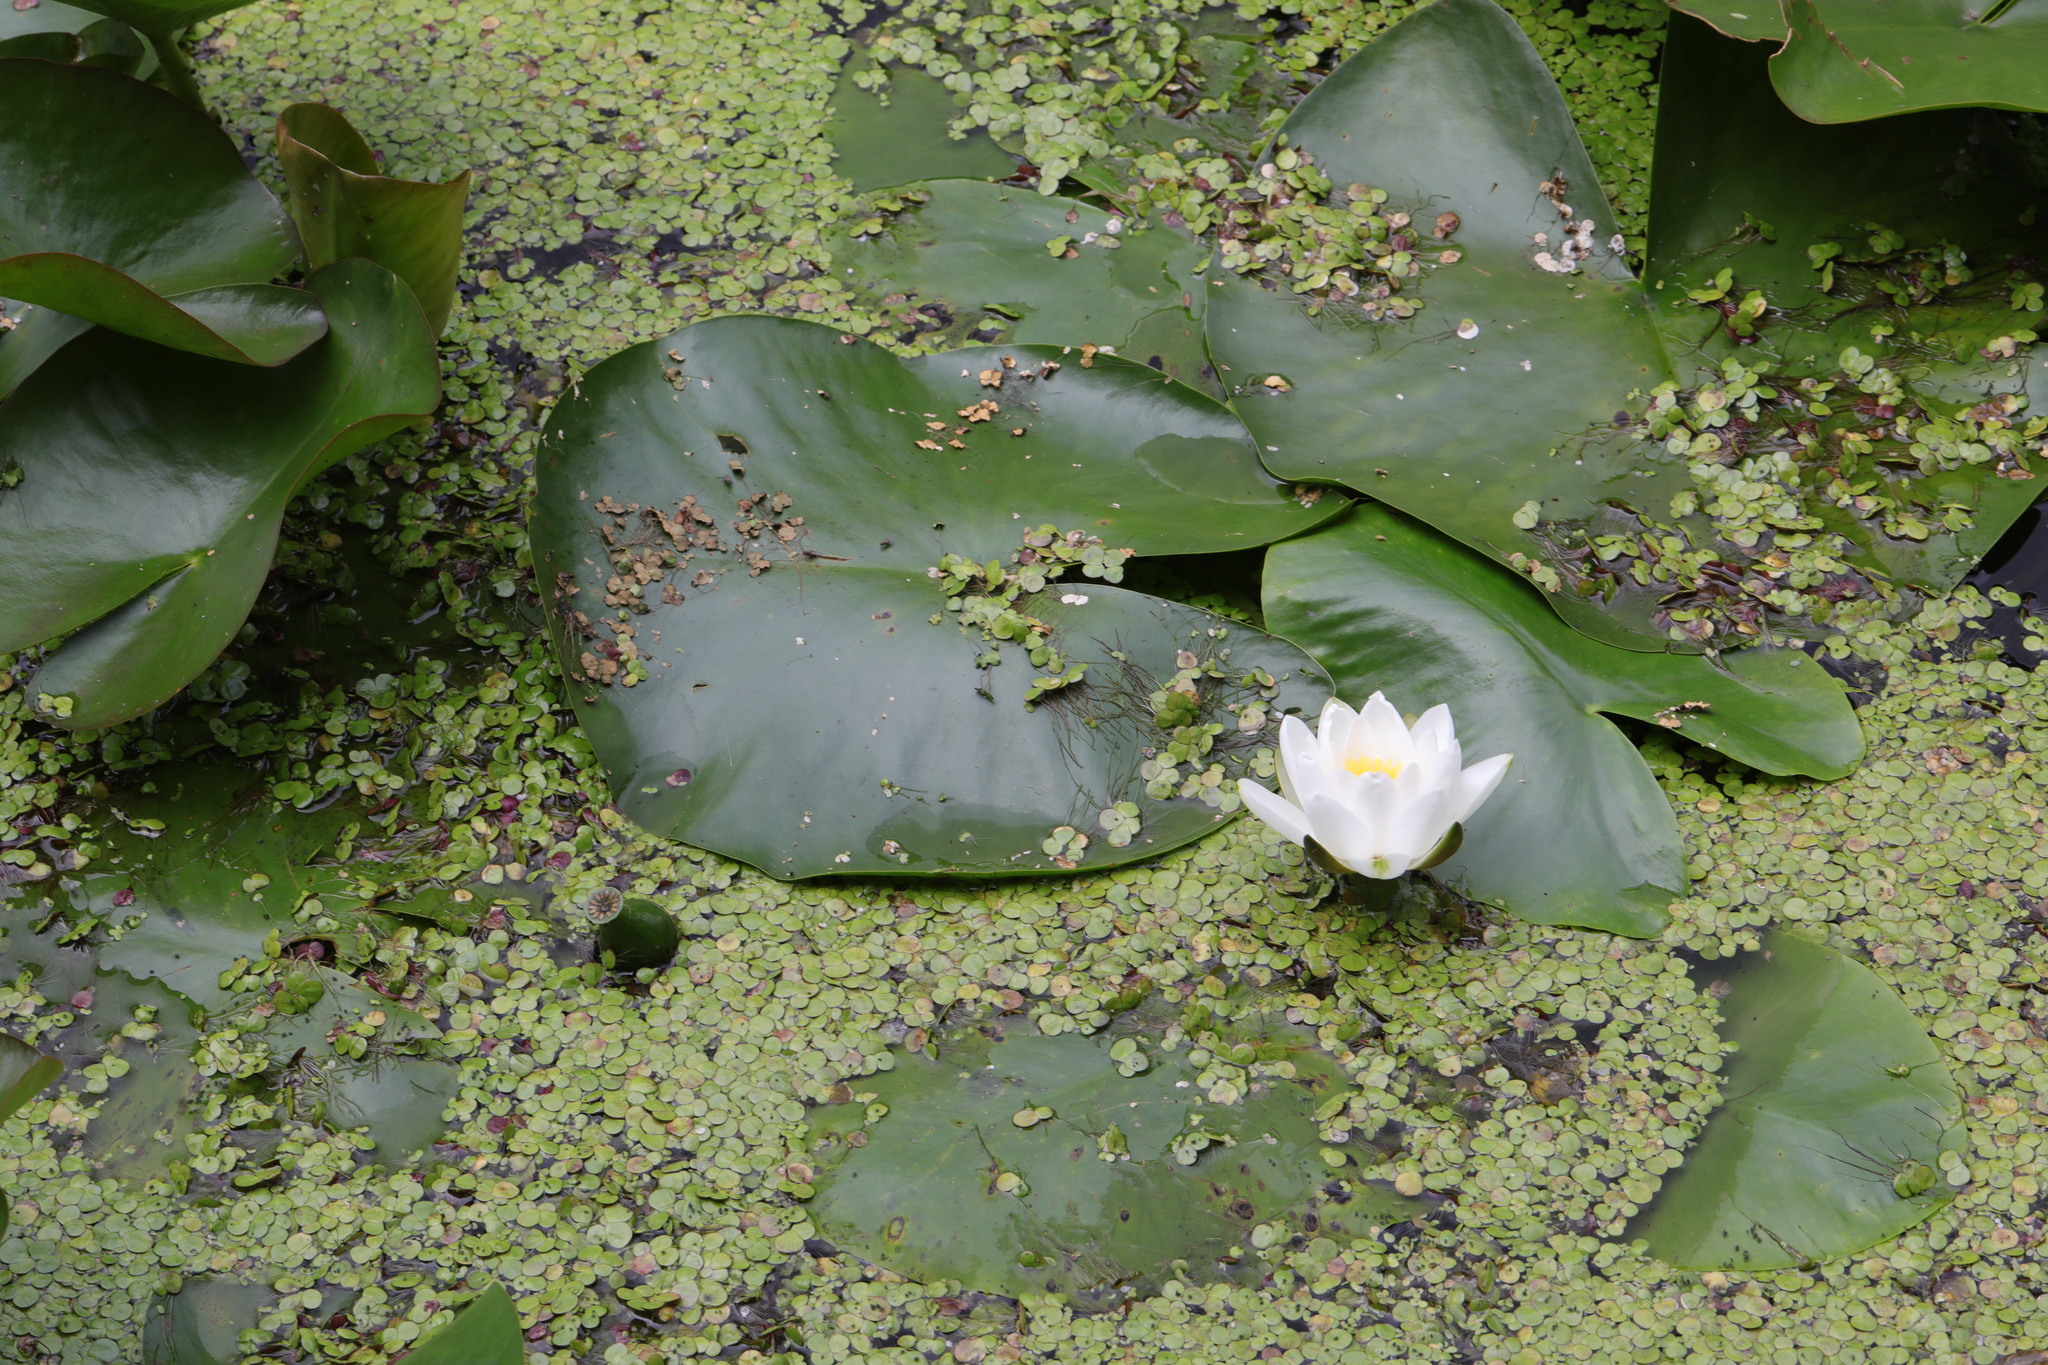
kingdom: Plantae
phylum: Tracheophyta
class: Magnoliopsida
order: Nymphaeales
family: Nymphaeaceae
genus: Nymphaea
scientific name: Nymphaea alba
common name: White water-lily
